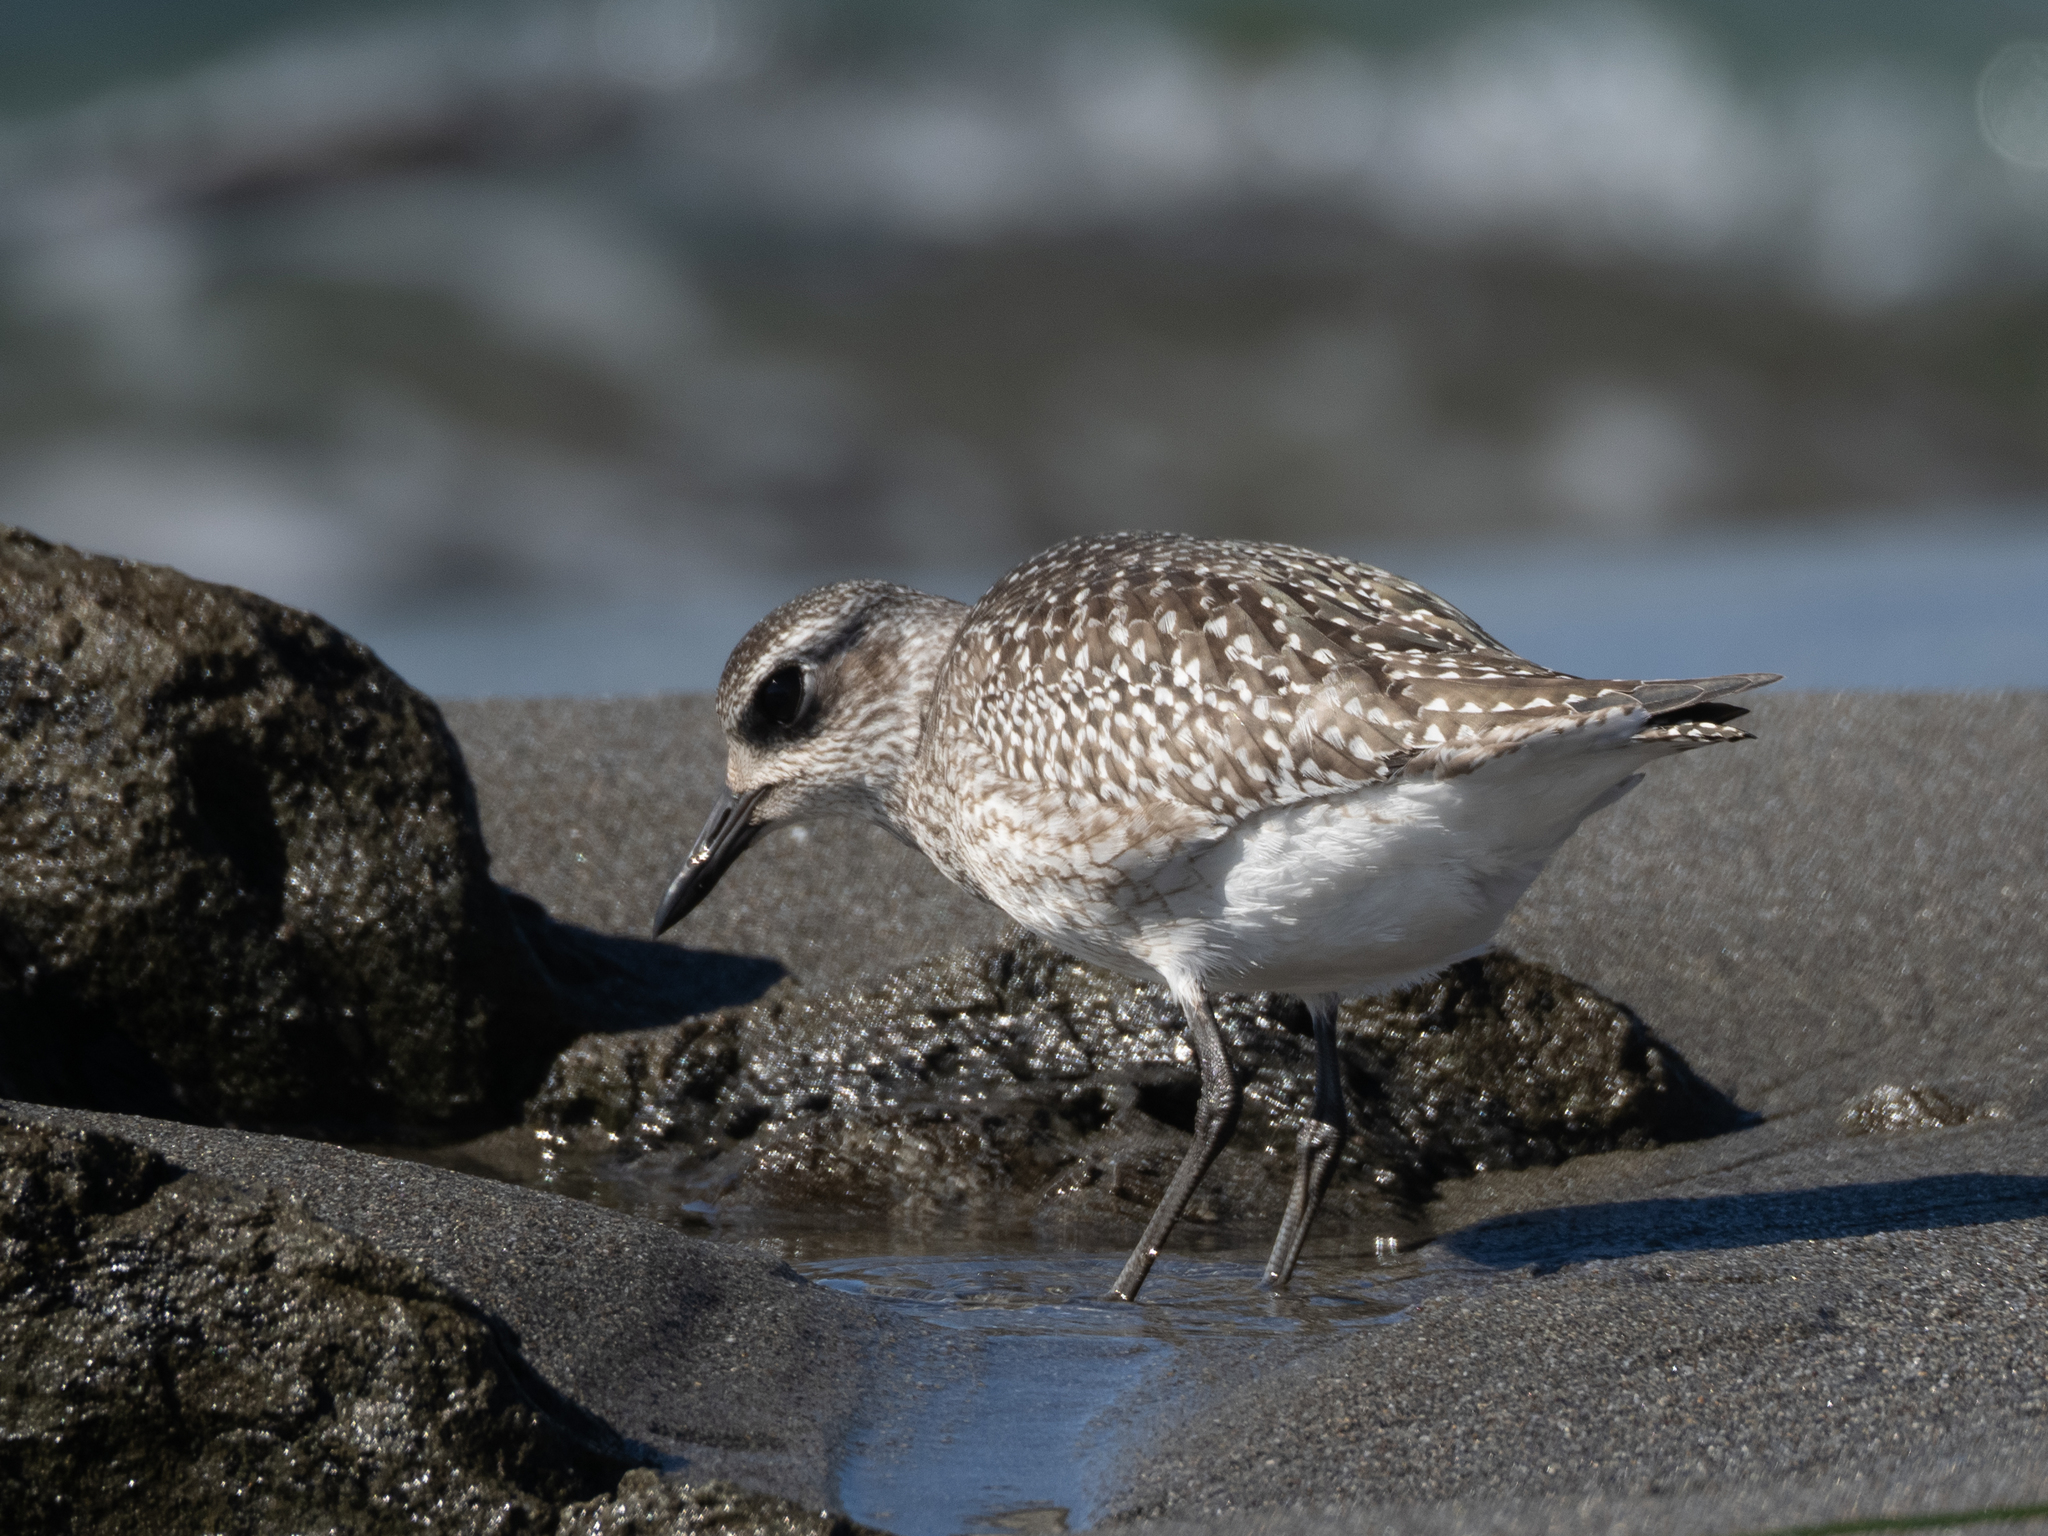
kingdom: Animalia
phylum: Chordata
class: Aves
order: Charadriiformes
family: Charadriidae
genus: Pluvialis
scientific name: Pluvialis squatarola
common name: Grey plover
